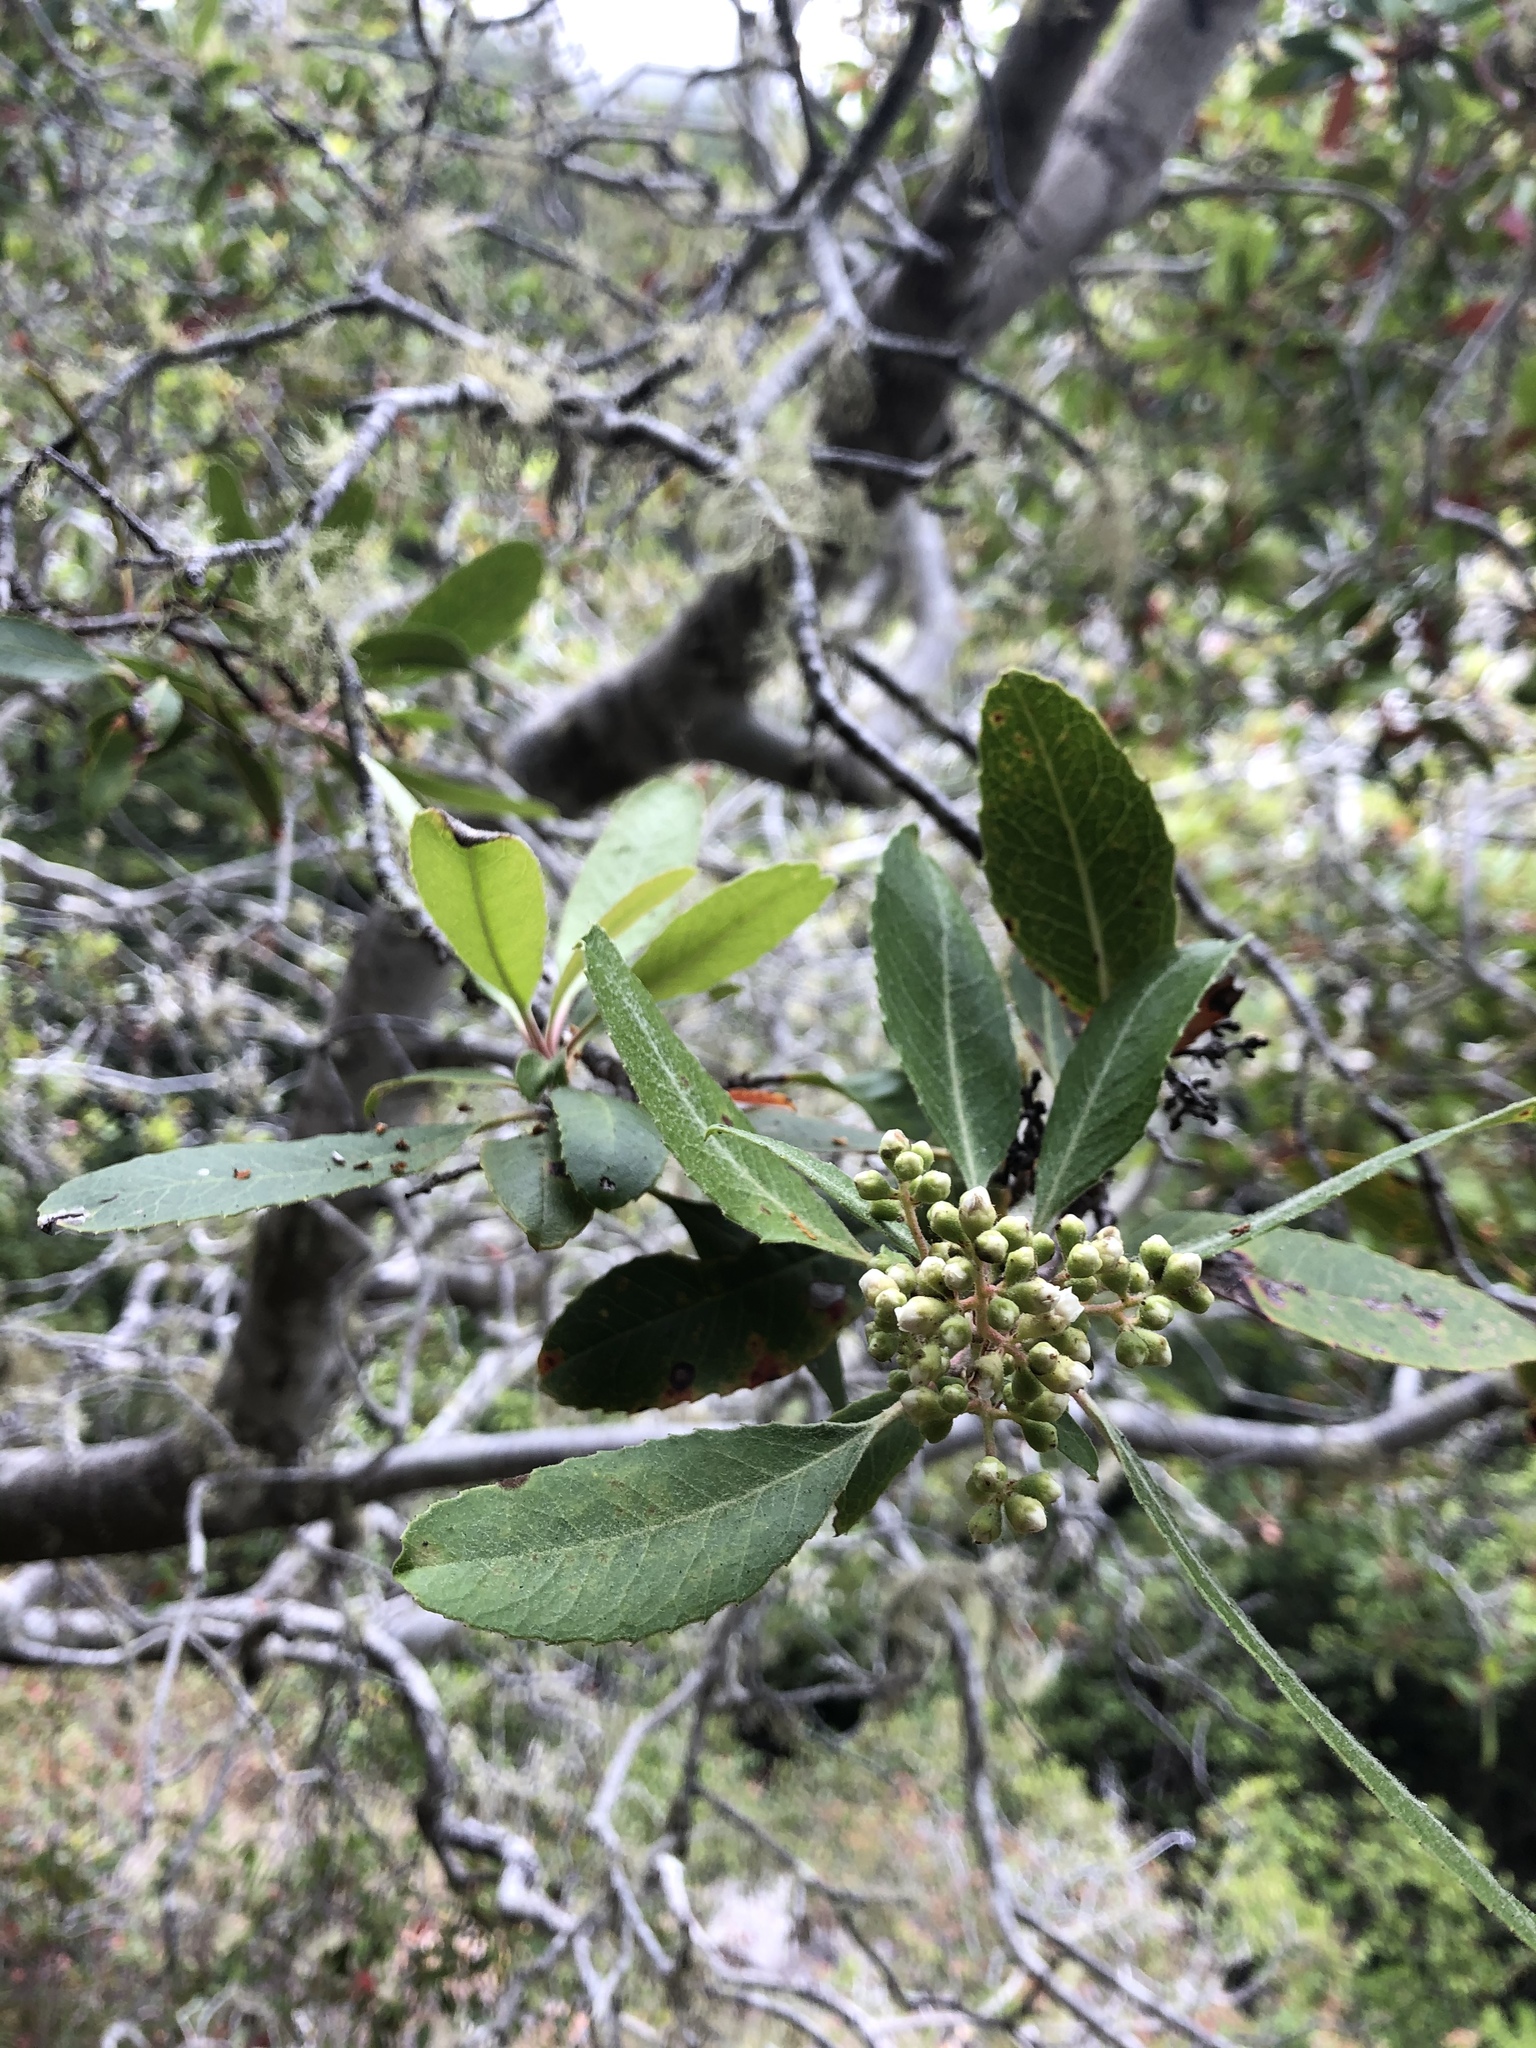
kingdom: Plantae
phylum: Tracheophyta
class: Magnoliopsida
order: Rosales
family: Rosaceae
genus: Heteromeles
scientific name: Heteromeles arbutifolia
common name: California-holly
